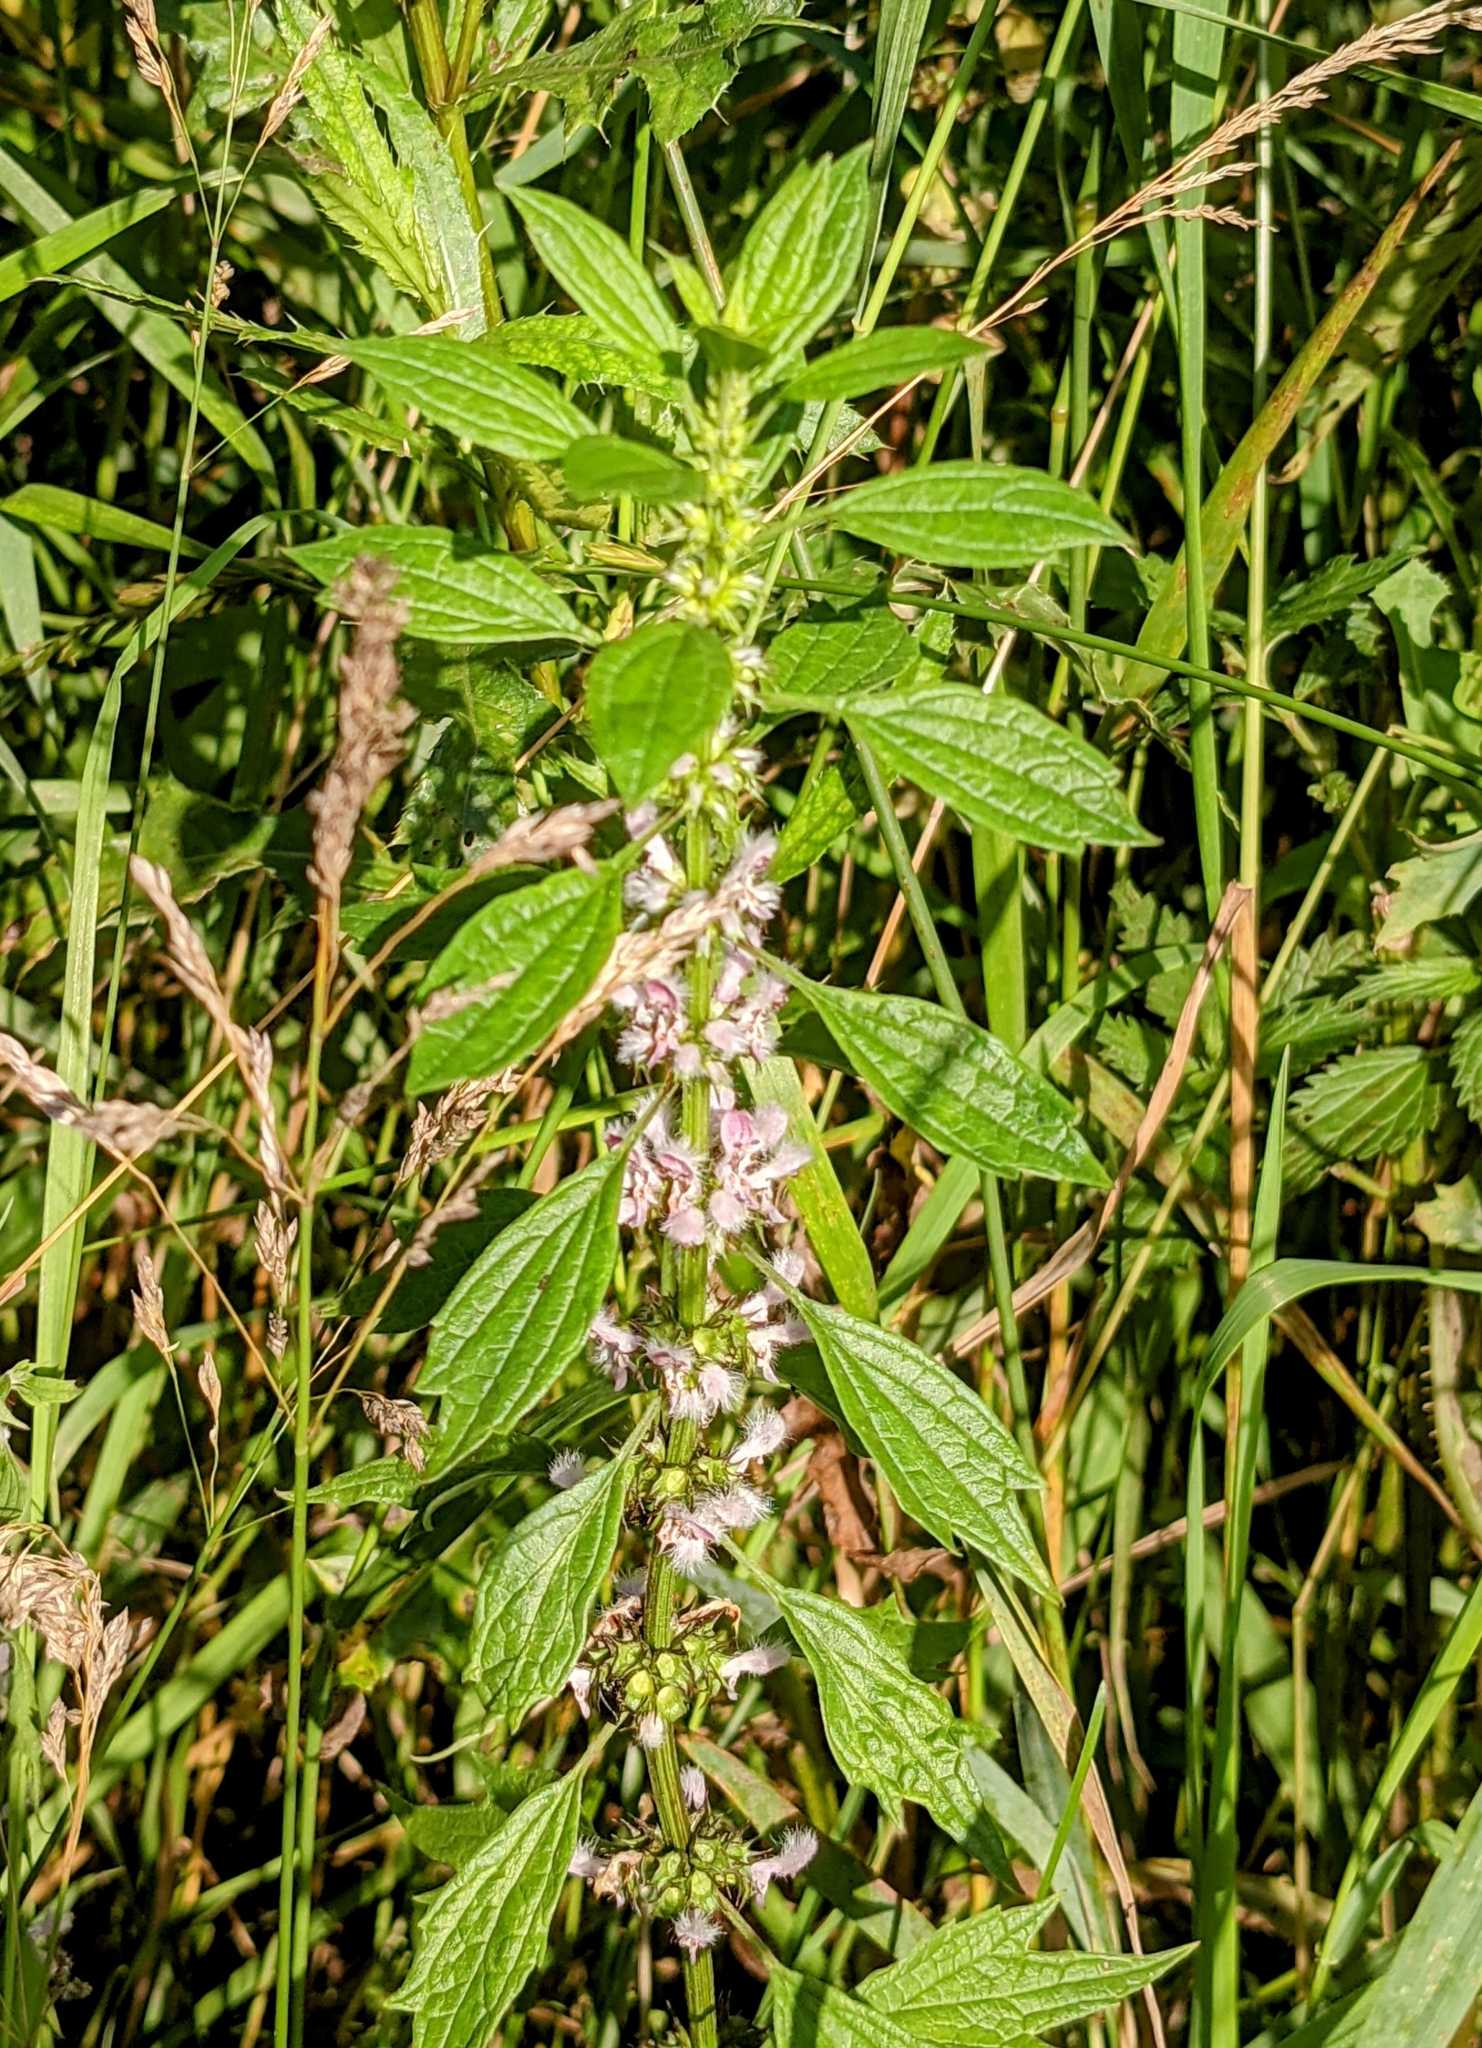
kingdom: Plantae
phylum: Tracheophyta
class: Magnoliopsida
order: Lamiales
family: Lamiaceae
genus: Leonurus
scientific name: Leonurus cardiaca
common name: Motherwort
